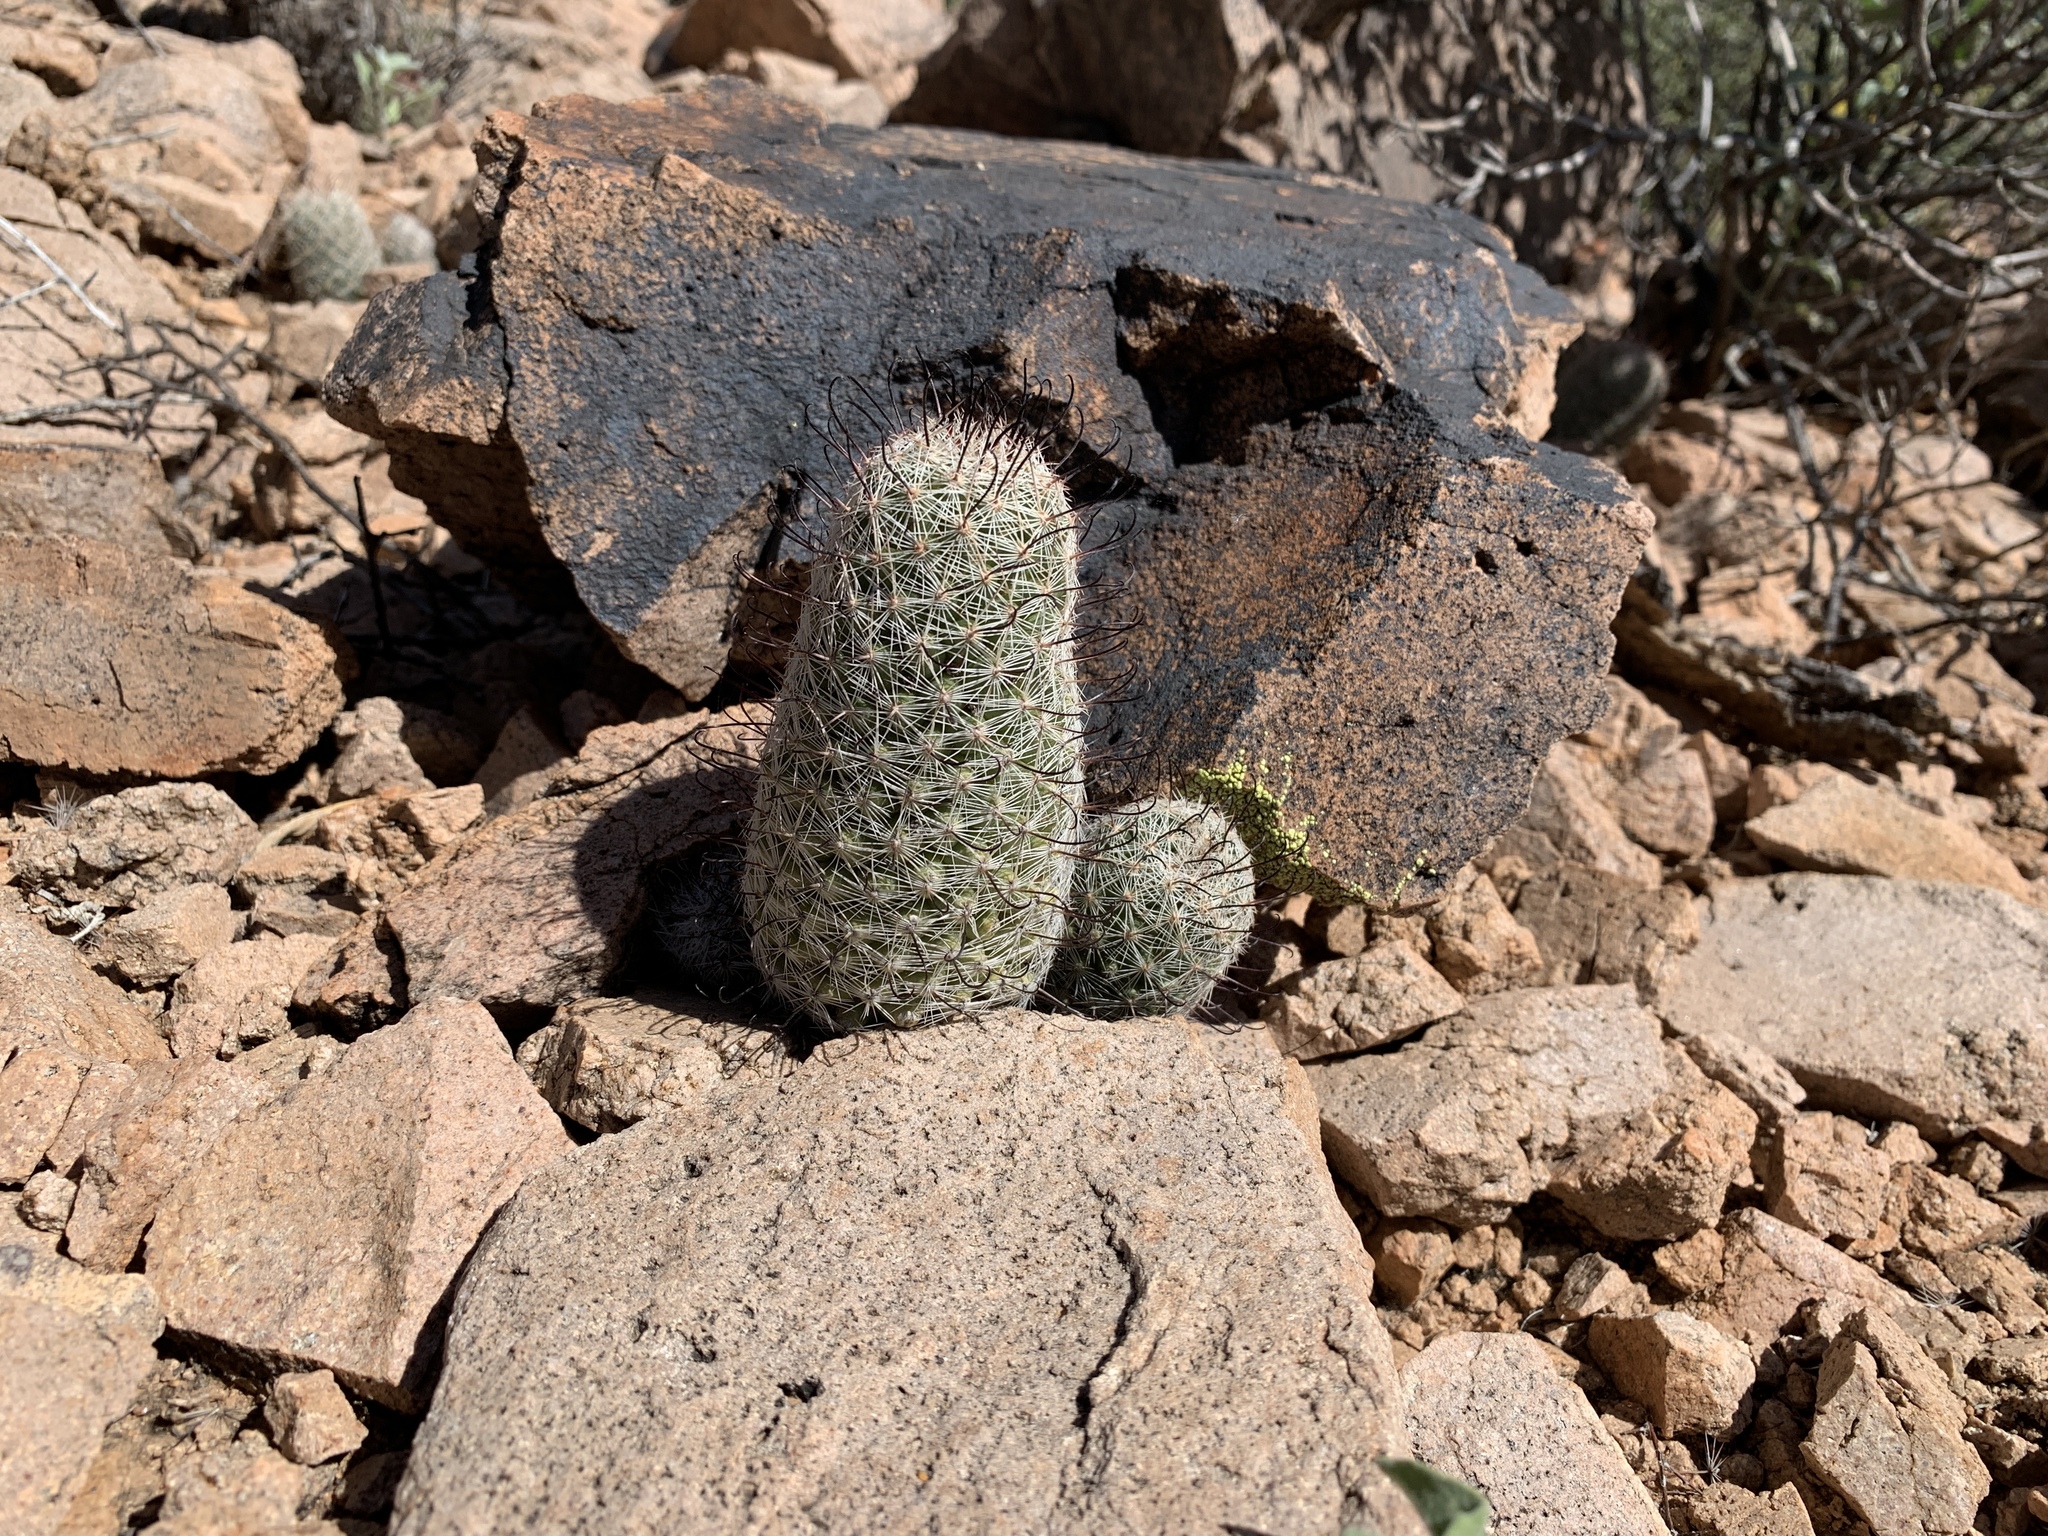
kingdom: Plantae
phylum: Tracheophyta
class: Magnoliopsida
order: Caryophyllales
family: Cactaceae
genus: Cochemiea
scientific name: Cochemiea grahamii
